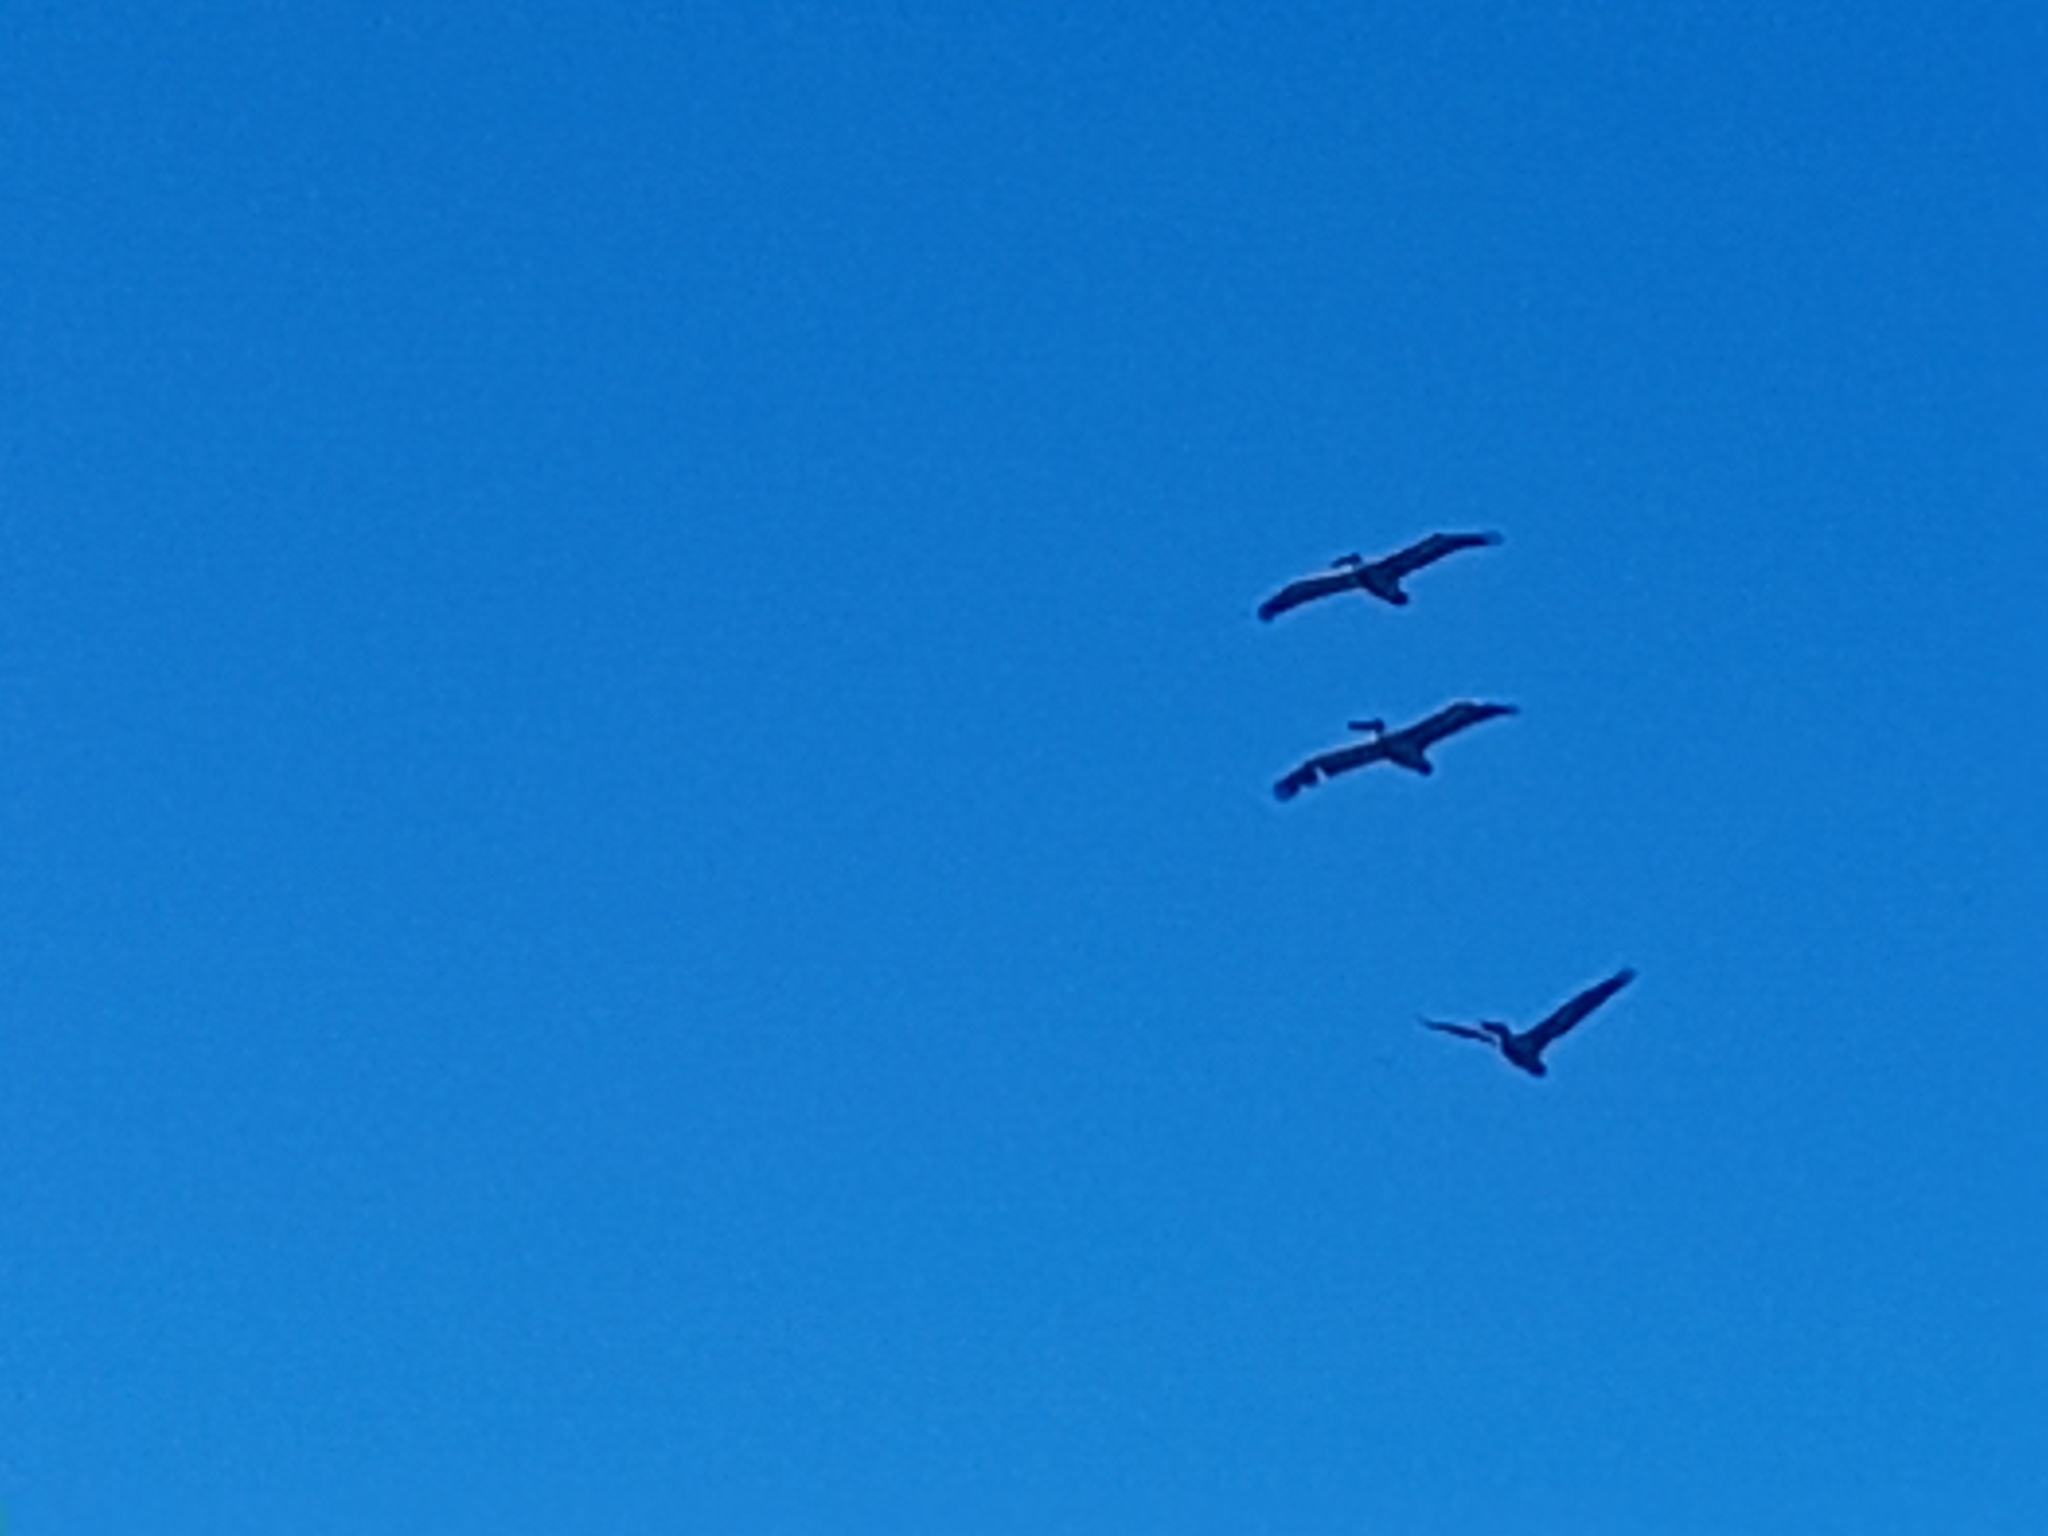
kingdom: Animalia
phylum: Chordata
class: Aves
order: Pelecaniformes
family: Pelecanidae
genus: Pelecanus
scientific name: Pelecanus thagus
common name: Peruvian pelican
